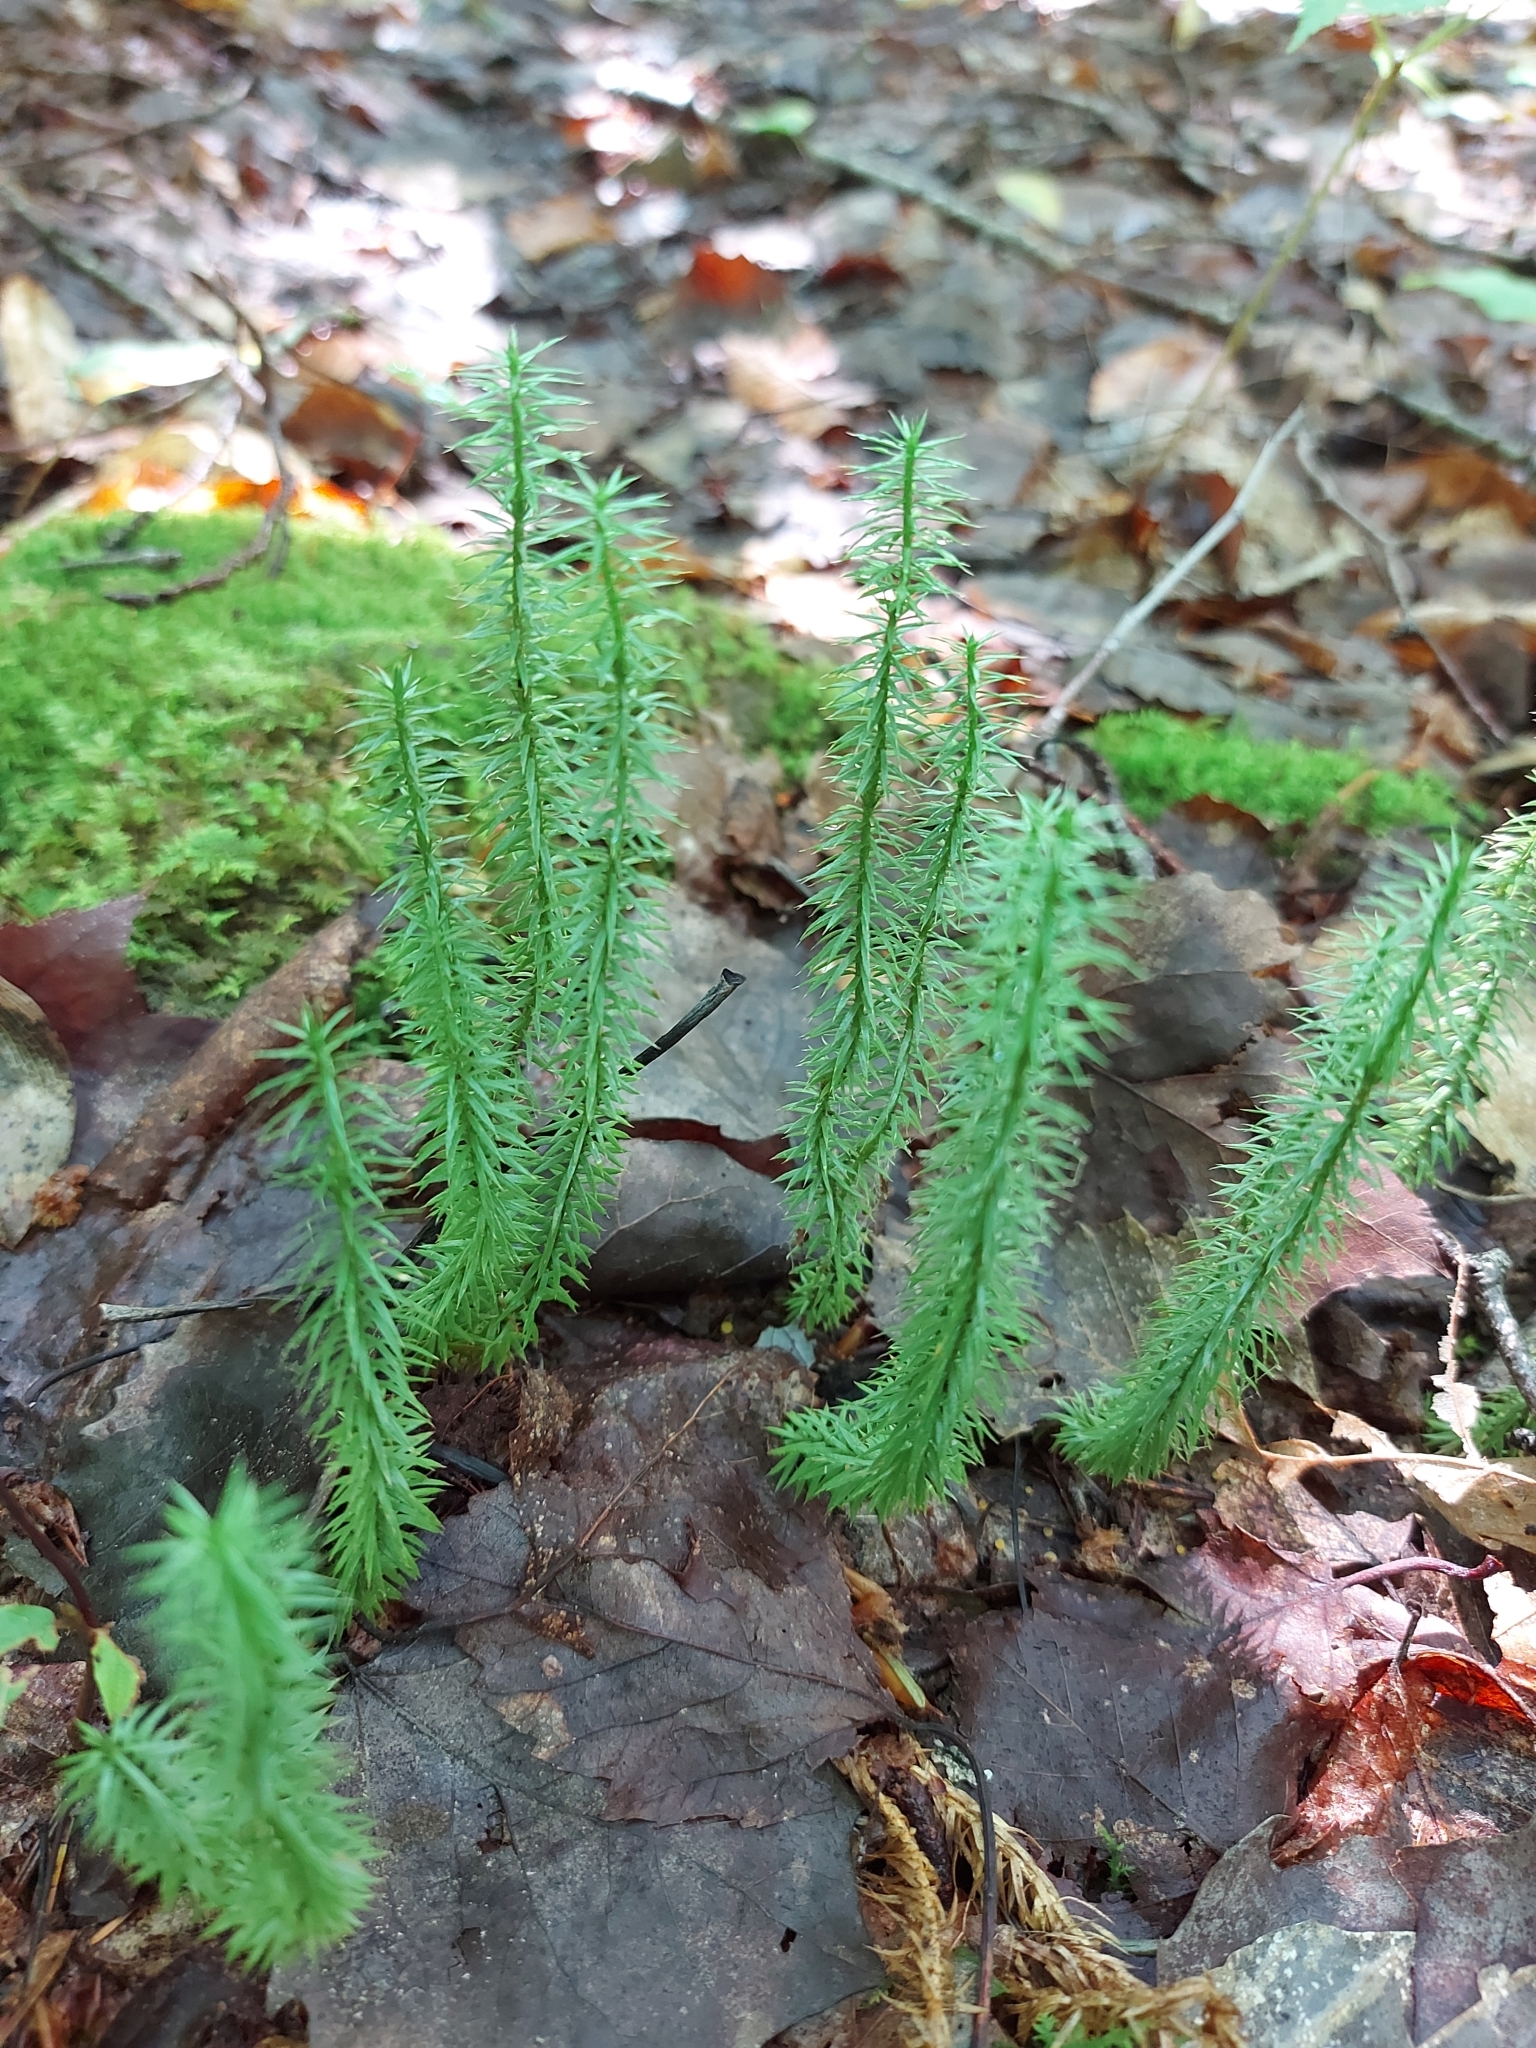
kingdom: Plantae
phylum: Tracheophyta
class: Lycopodiopsida
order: Lycopodiales
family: Lycopodiaceae
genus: Spinulum
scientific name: Spinulum annotinum
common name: Interrupted club-moss
